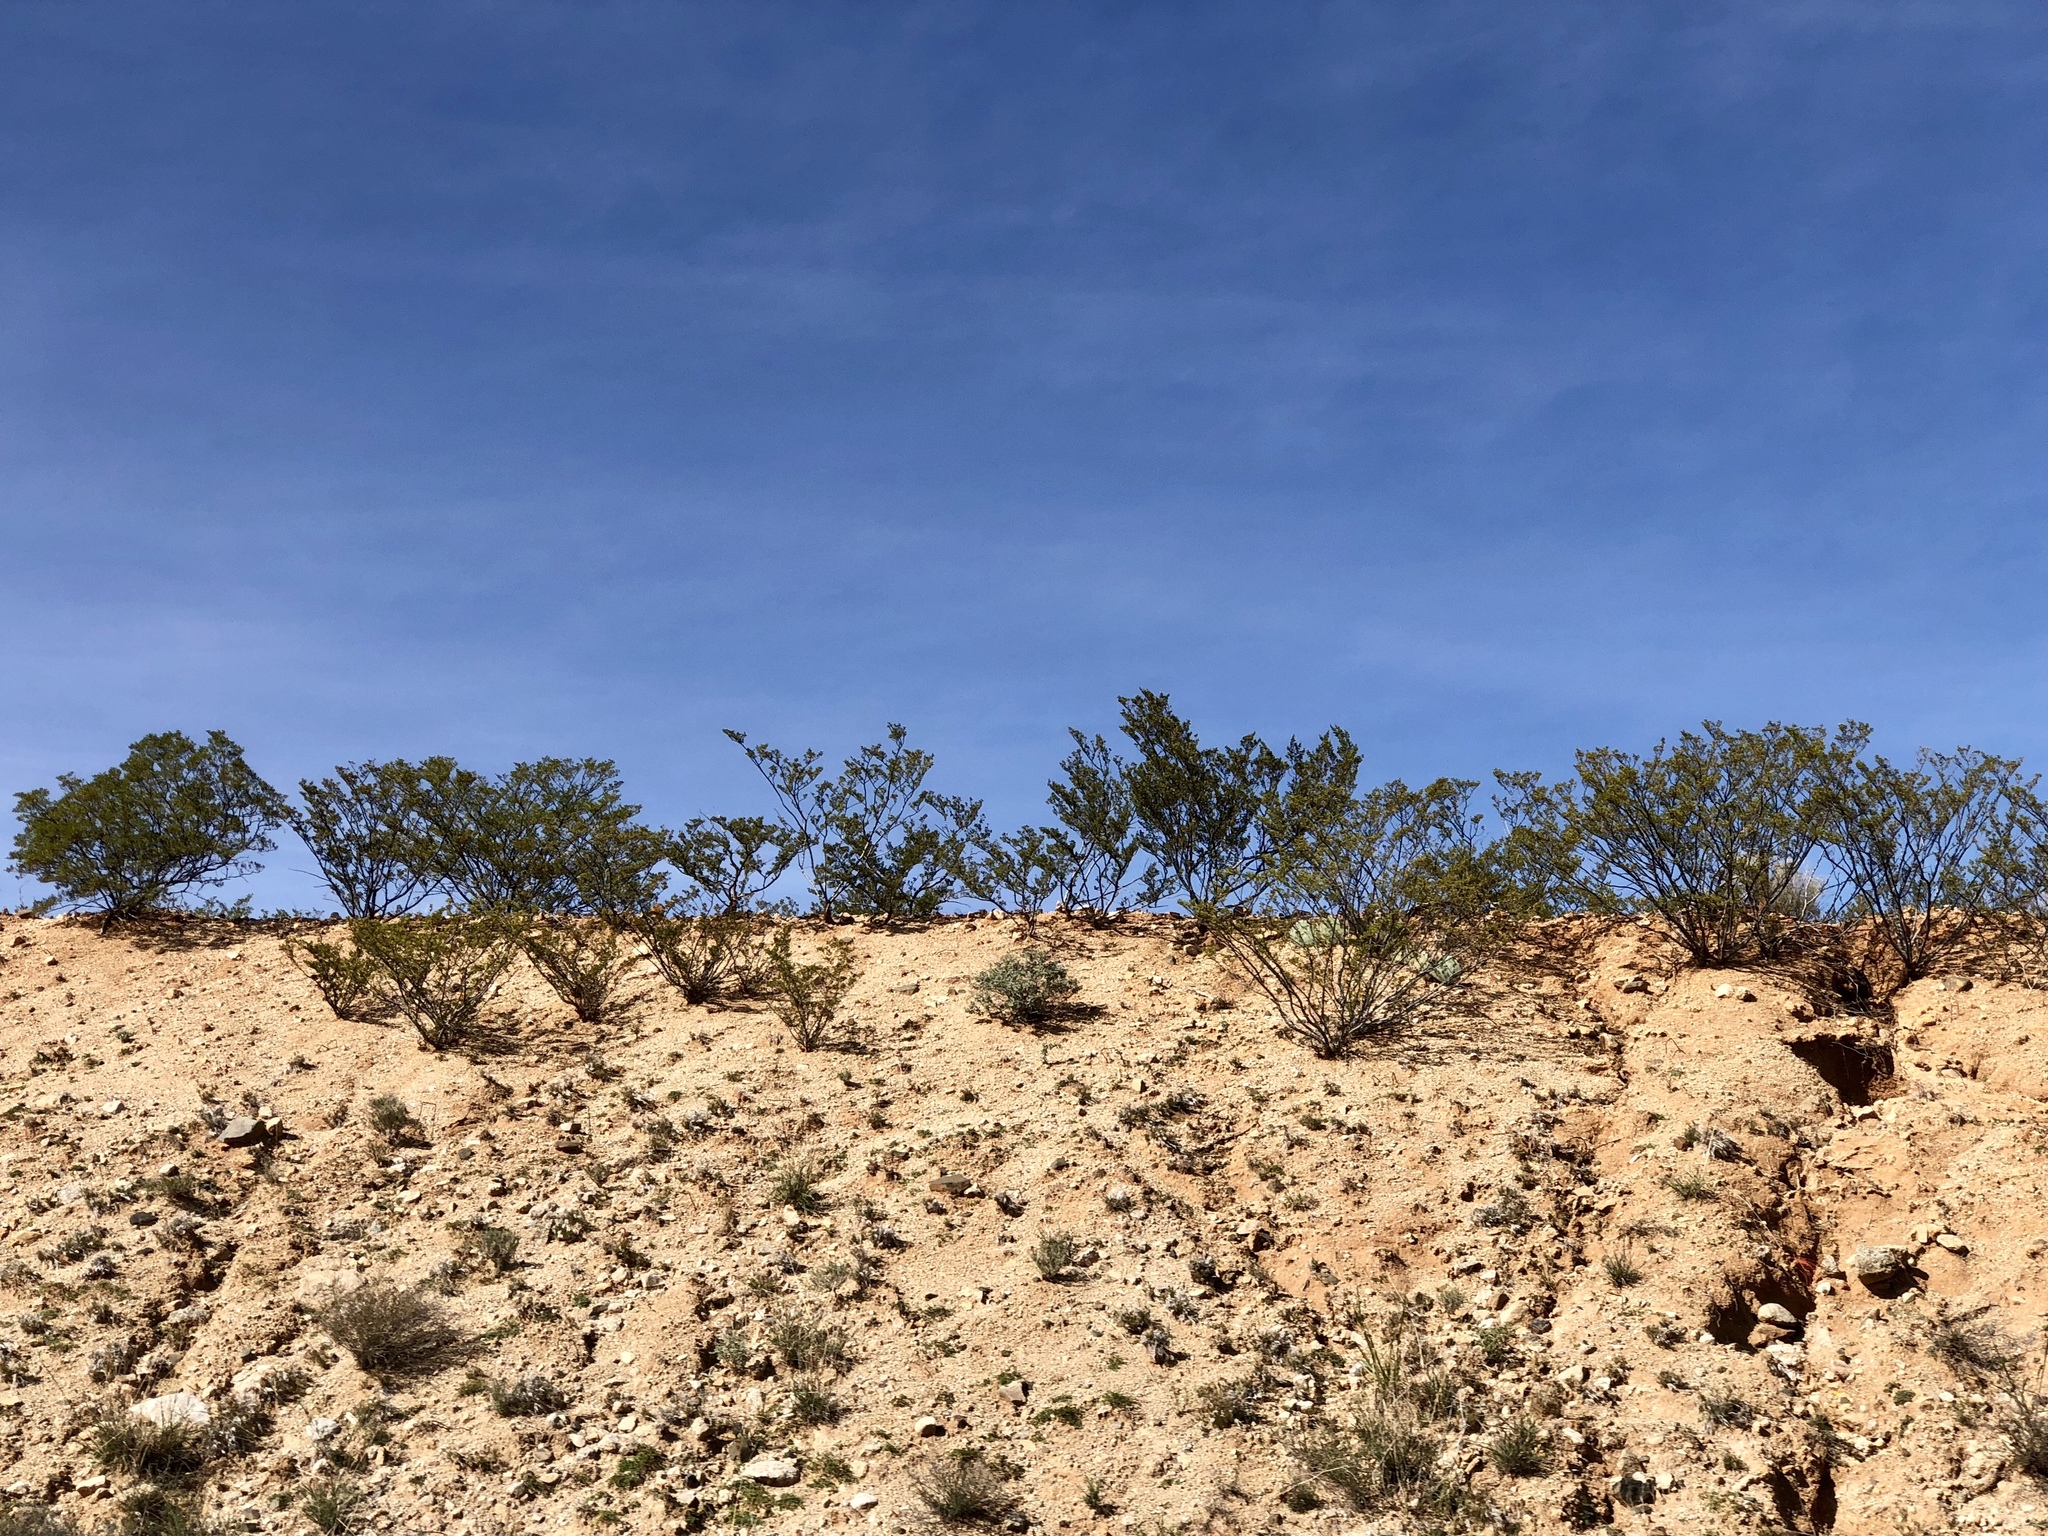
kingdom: Plantae
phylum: Tracheophyta
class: Magnoliopsida
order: Zygophyllales
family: Zygophyllaceae
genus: Larrea
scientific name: Larrea tridentata
